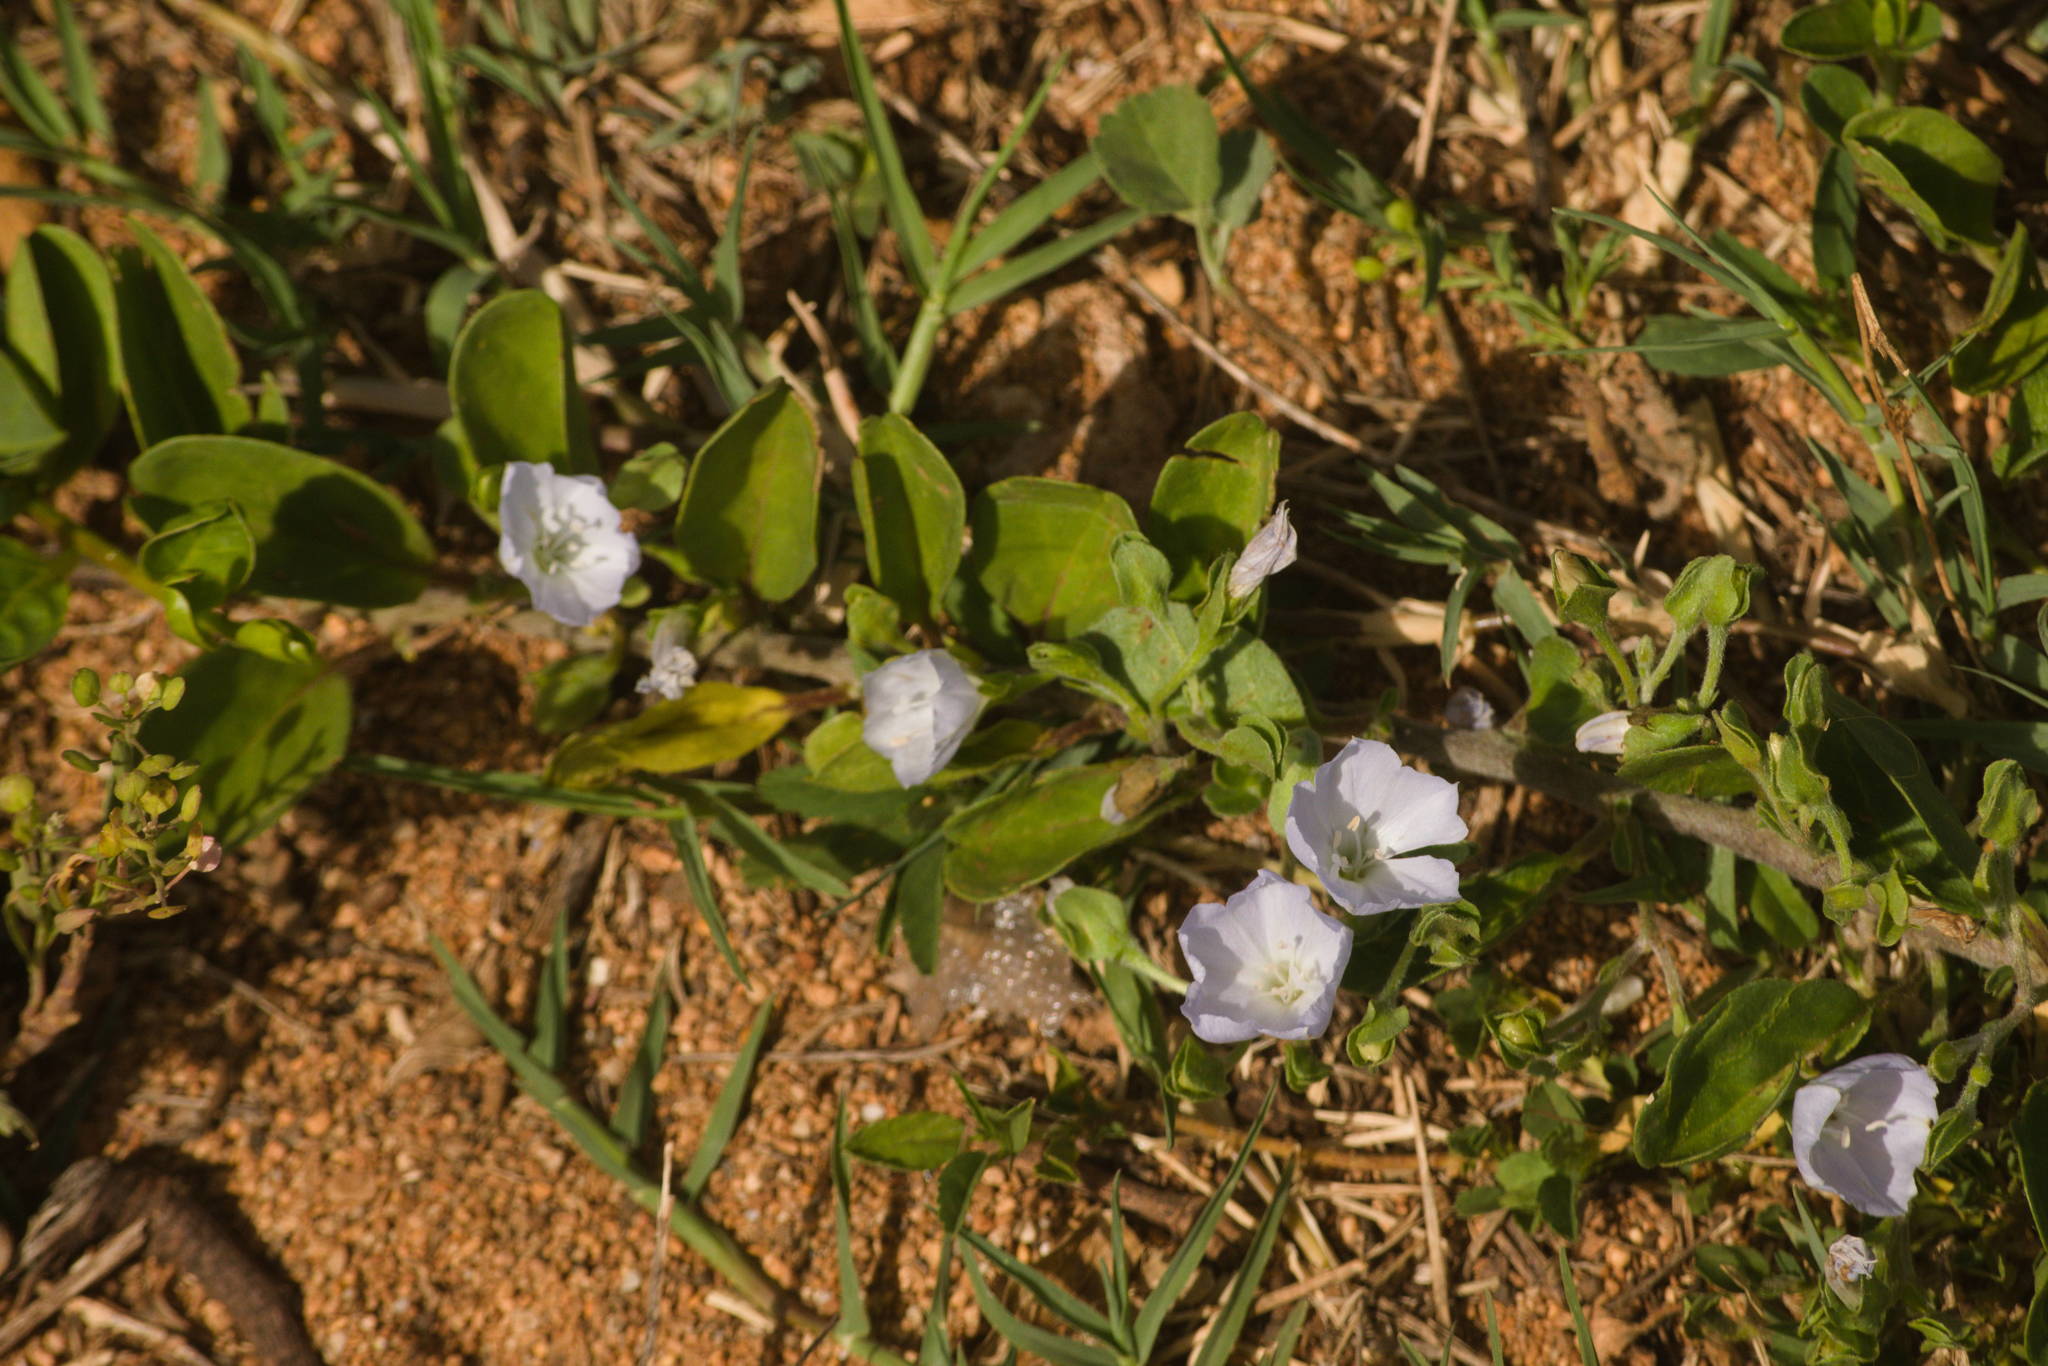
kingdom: Plantae
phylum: Tracheophyta
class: Magnoliopsida
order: Solanales
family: Convolvulaceae
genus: Jacquemontia
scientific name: Jacquemontia sandwicensis
